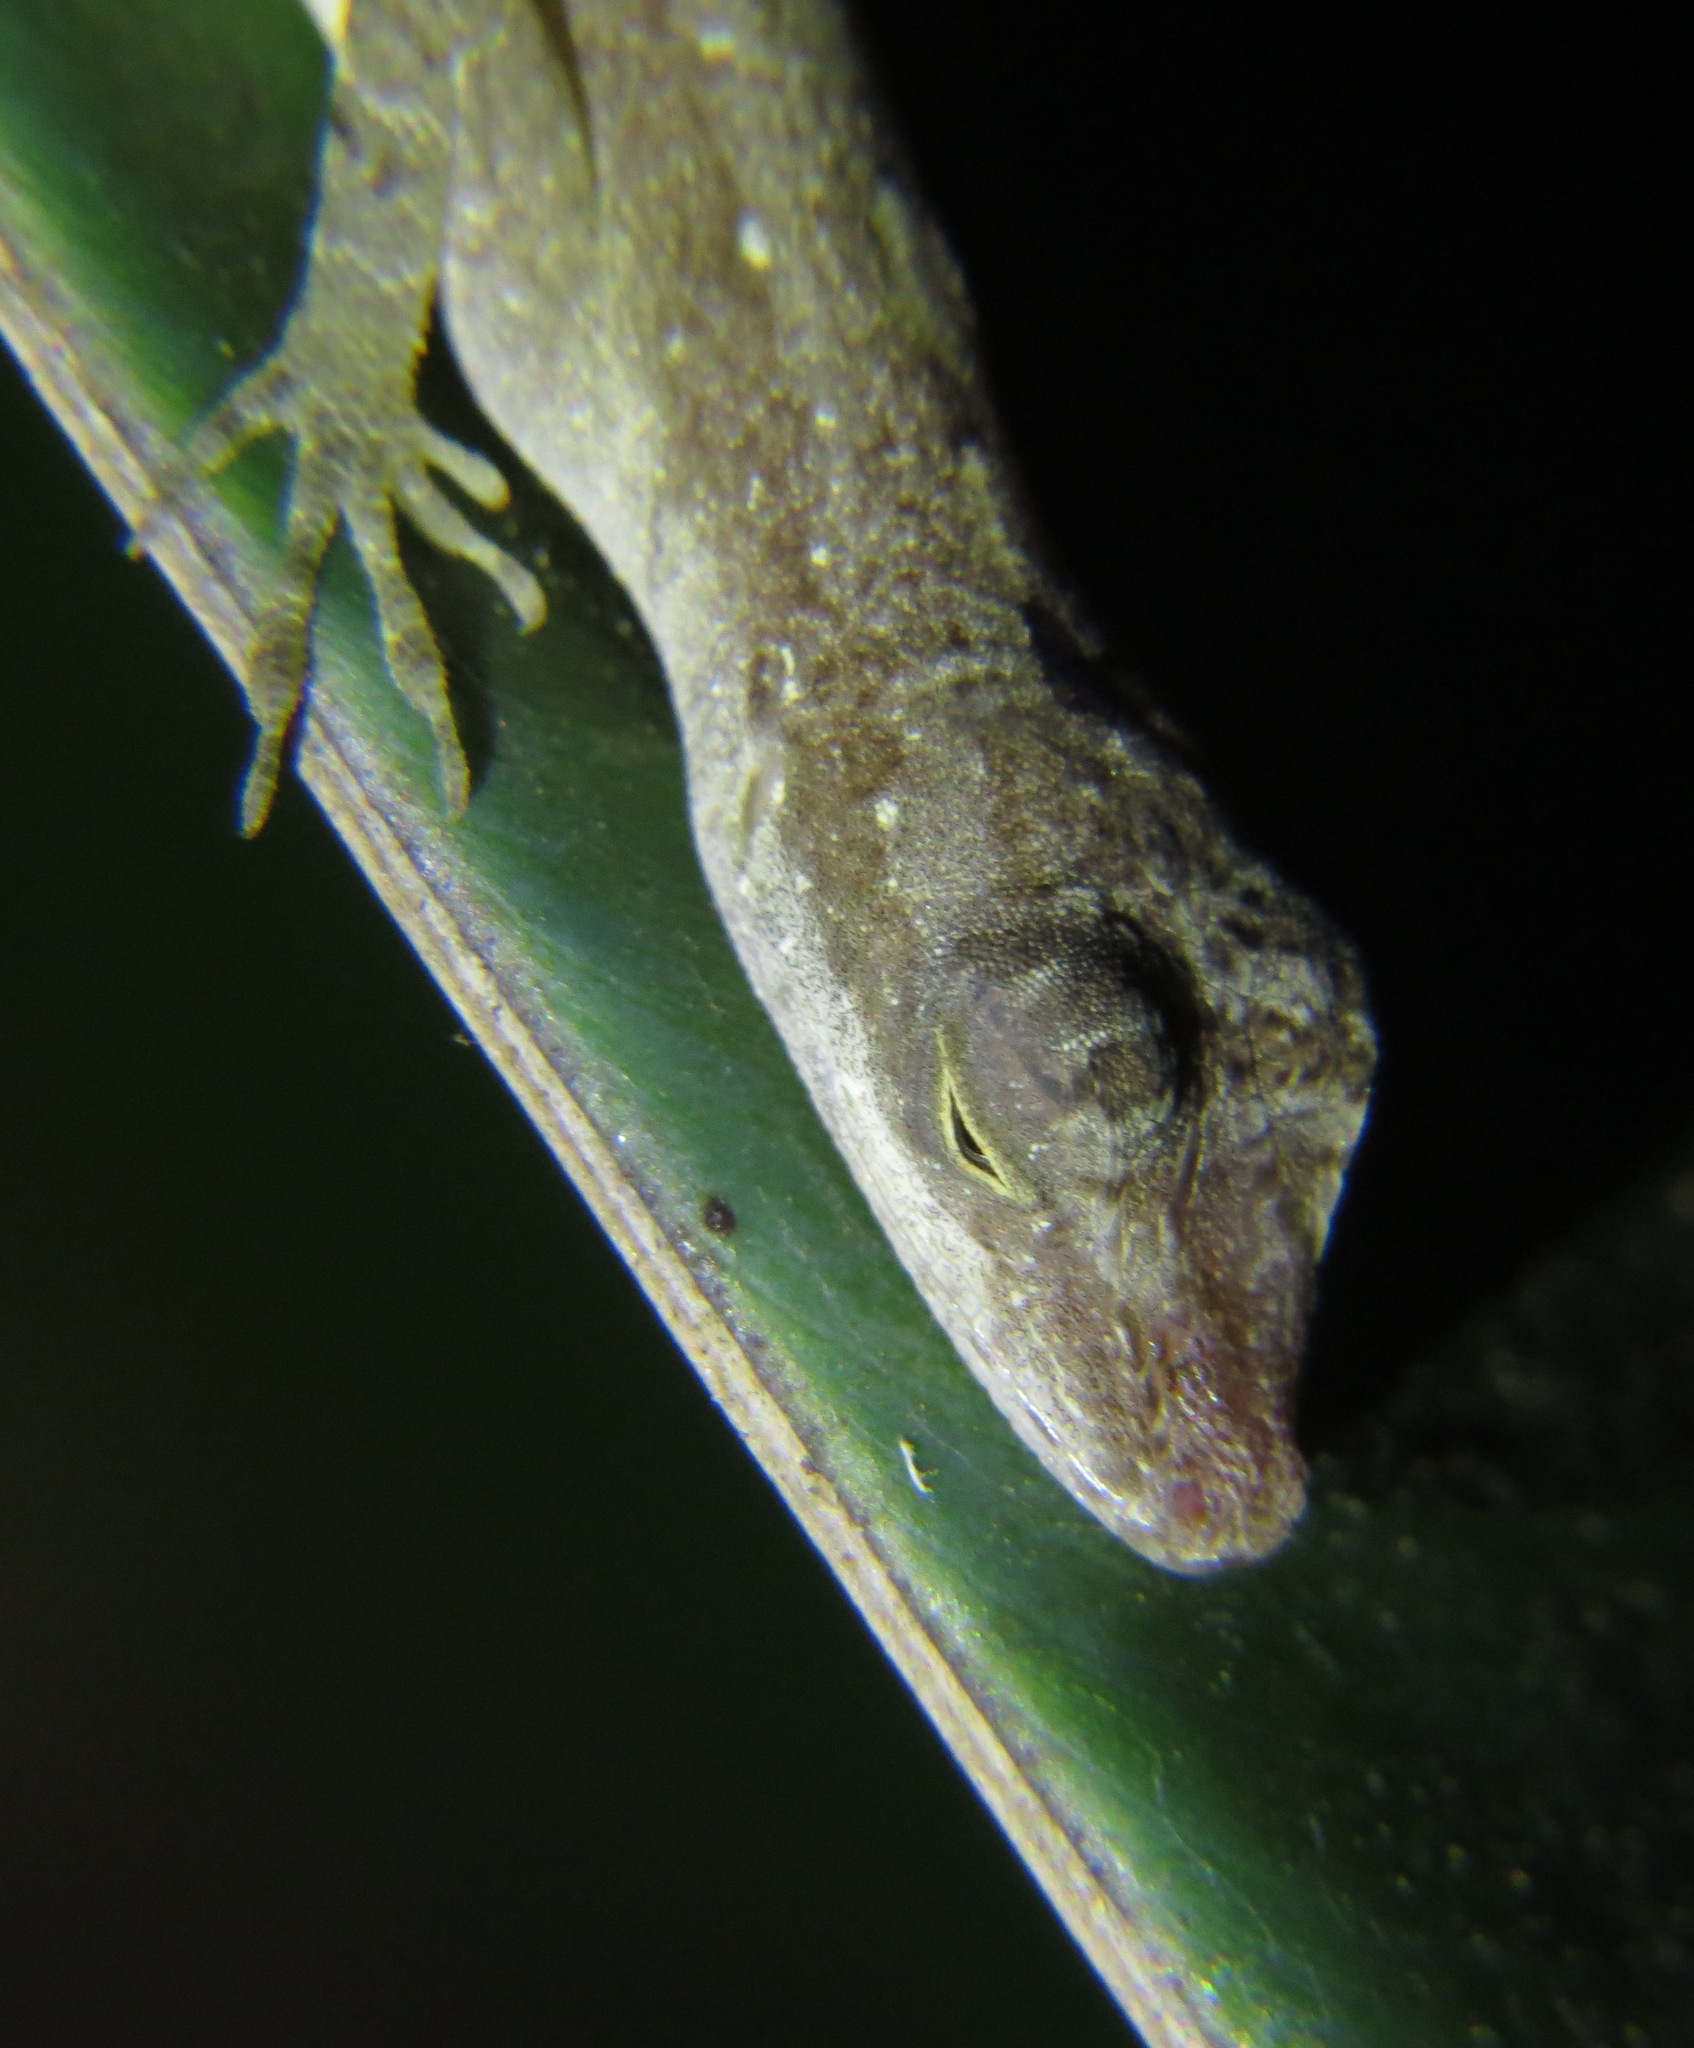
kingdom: Animalia
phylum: Chordata
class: Squamata
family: Dactyloidae
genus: Anolis
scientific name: Anolis limifrons
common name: Border anole
